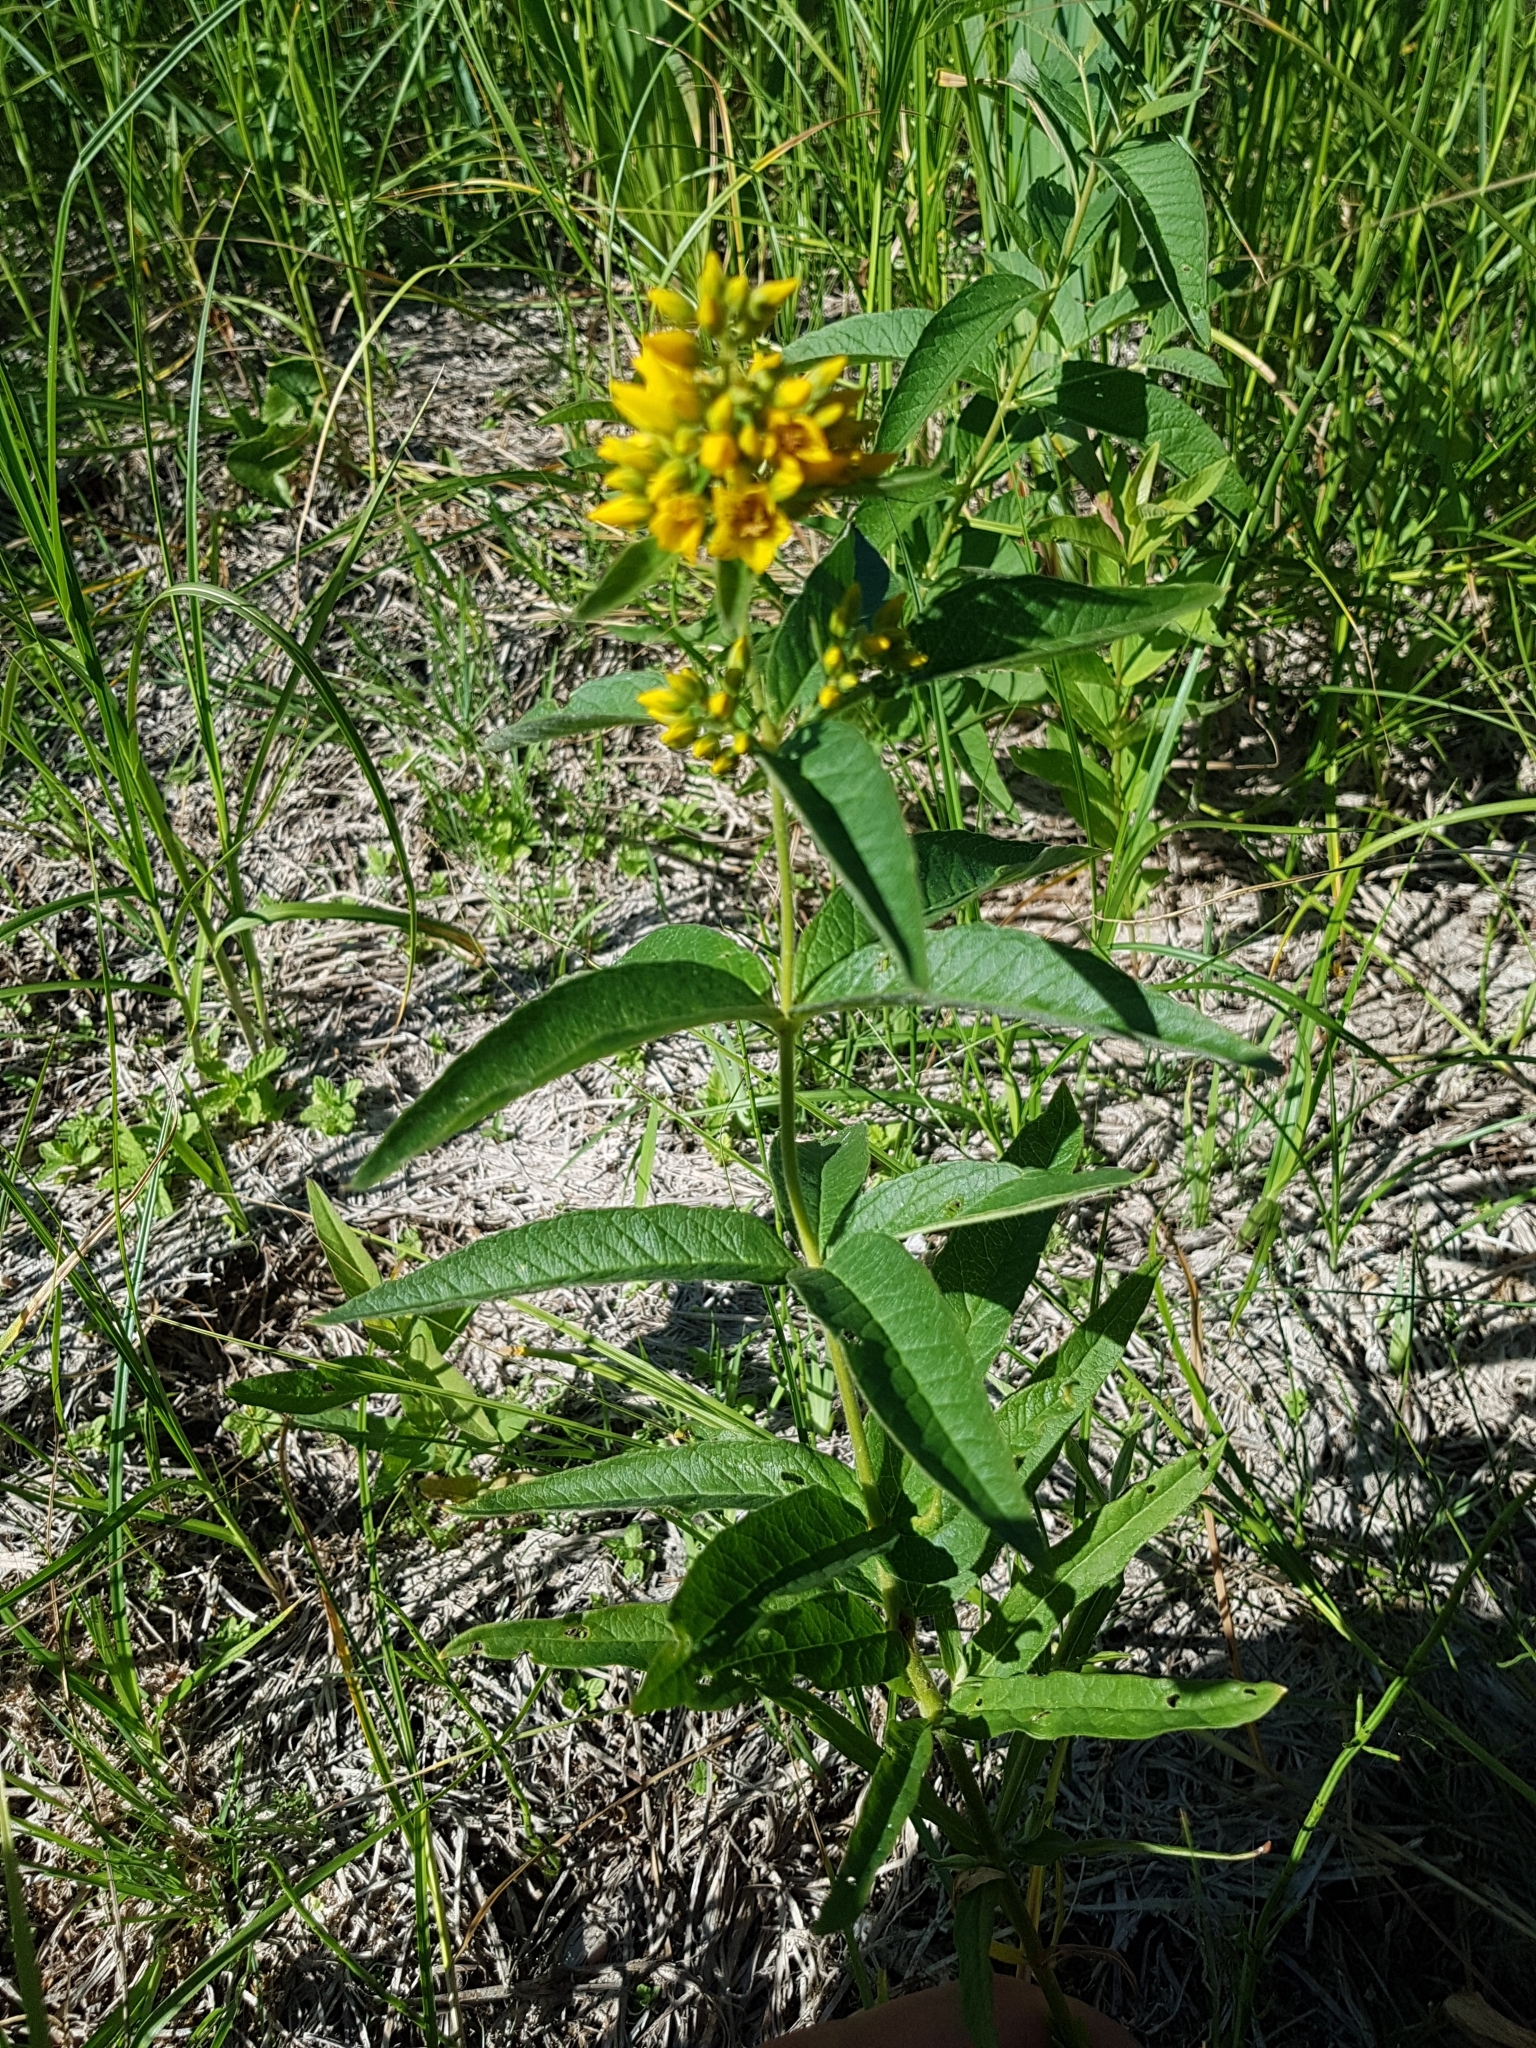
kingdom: Plantae
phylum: Tracheophyta
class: Magnoliopsida
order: Ericales
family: Primulaceae
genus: Lysimachia
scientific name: Lysimachia vulgaris
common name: Yellow loosestrife
